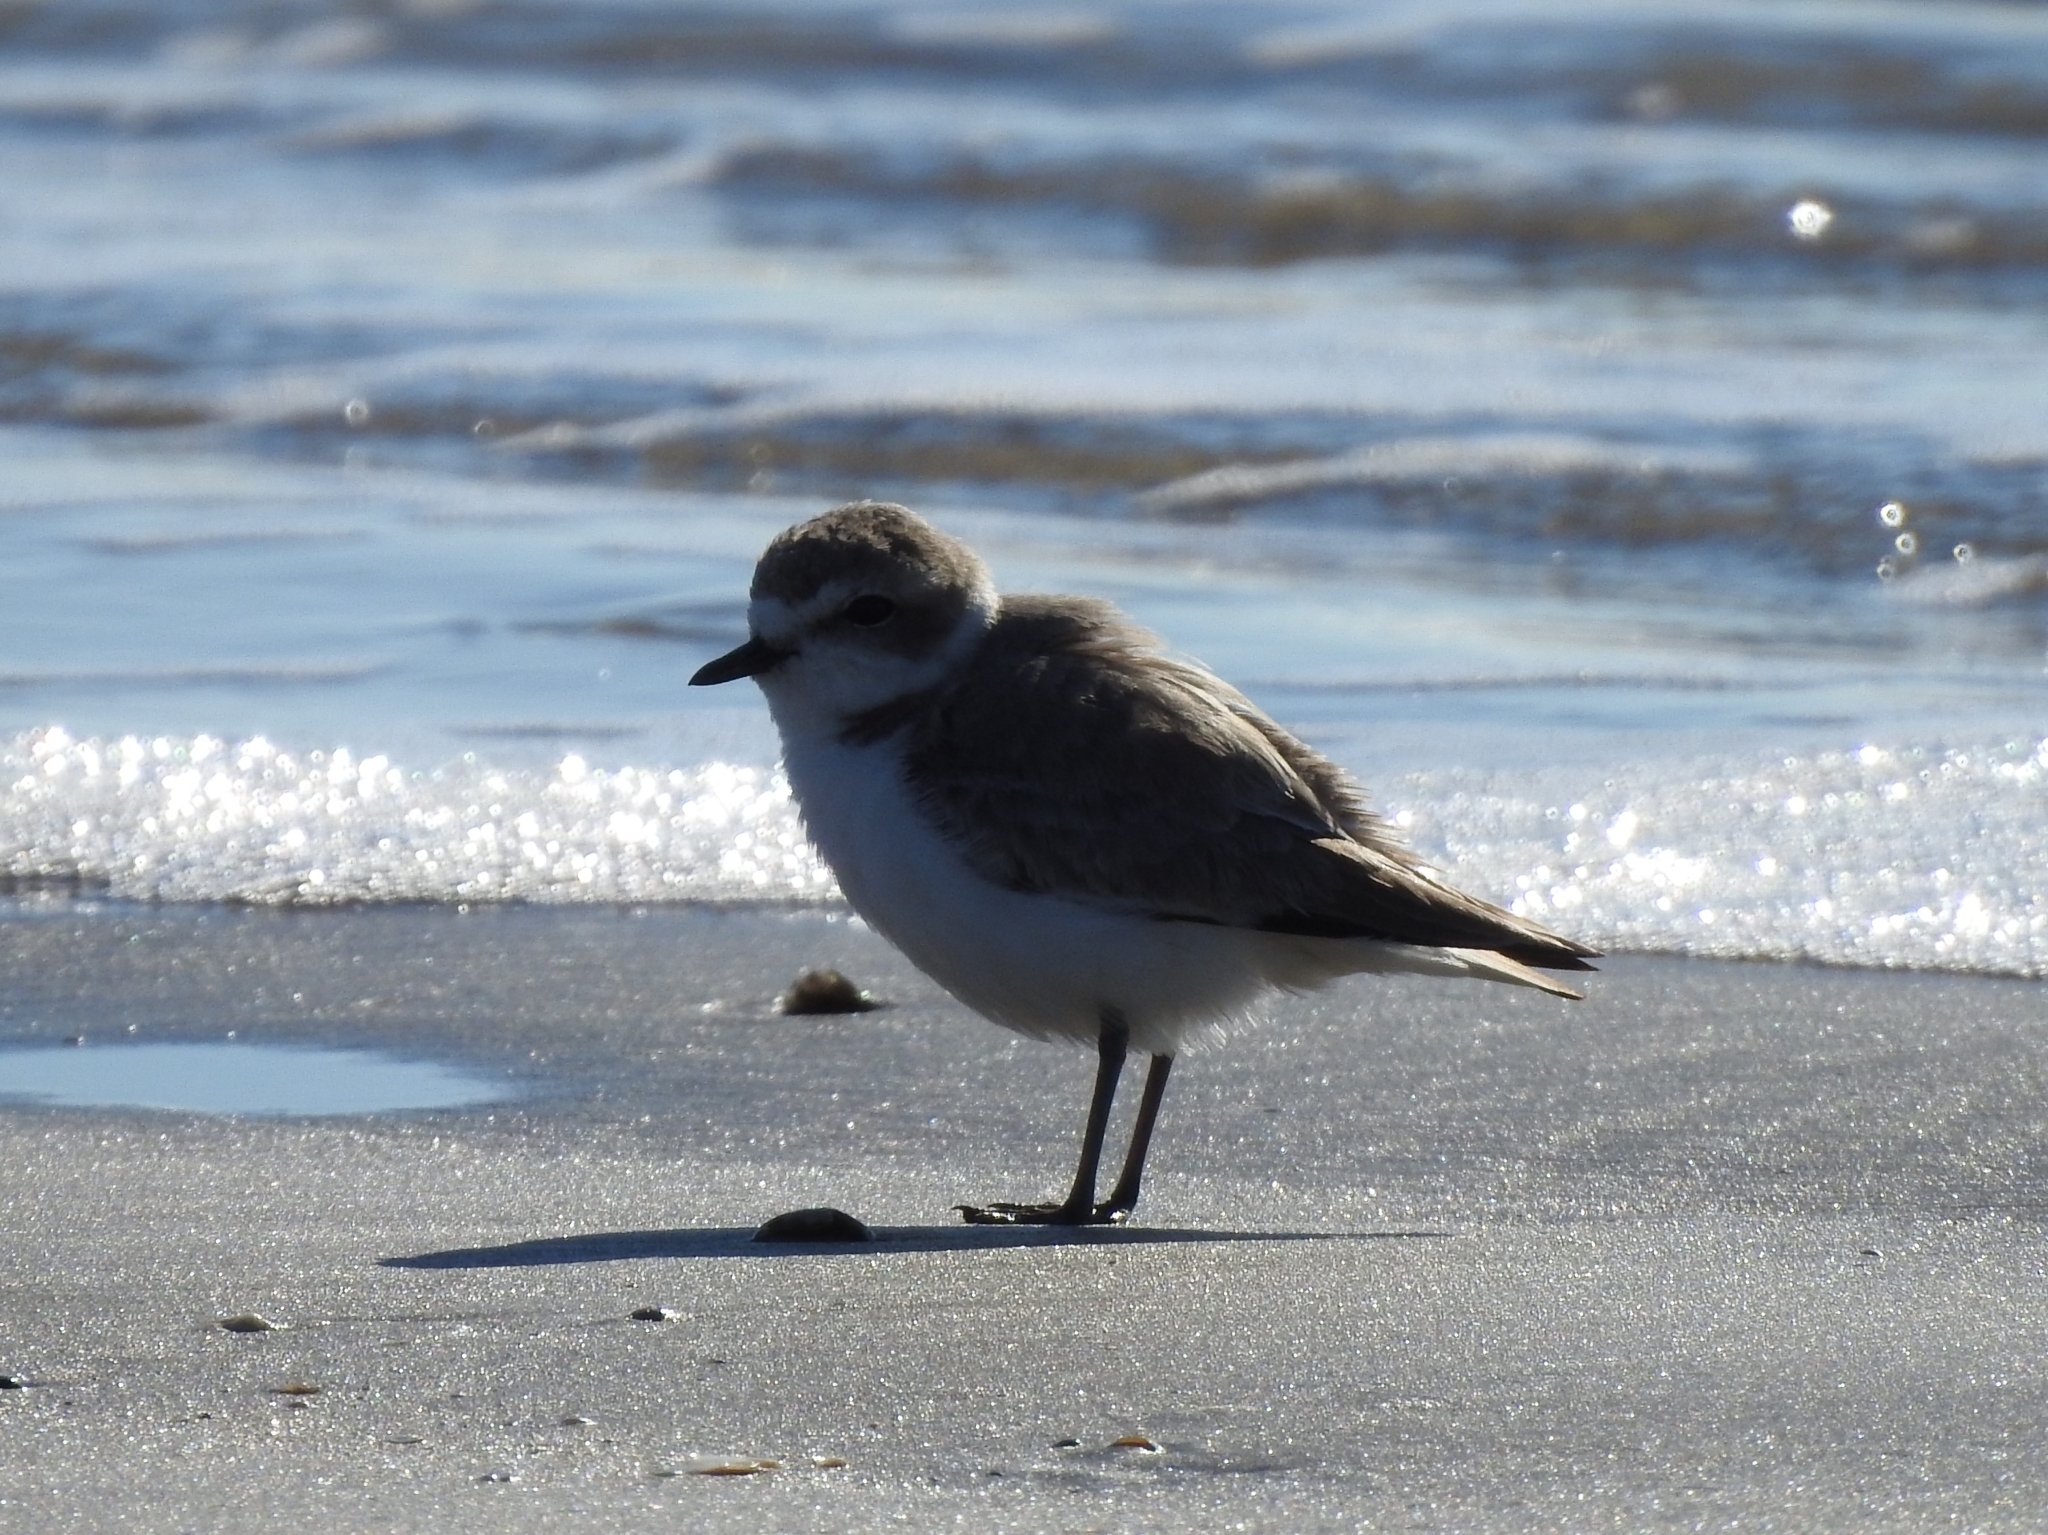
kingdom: Animalia
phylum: Chordata
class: Aves
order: Charadriiformes
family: Charadriidae
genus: Anarhynchus
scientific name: Anarhynchus
